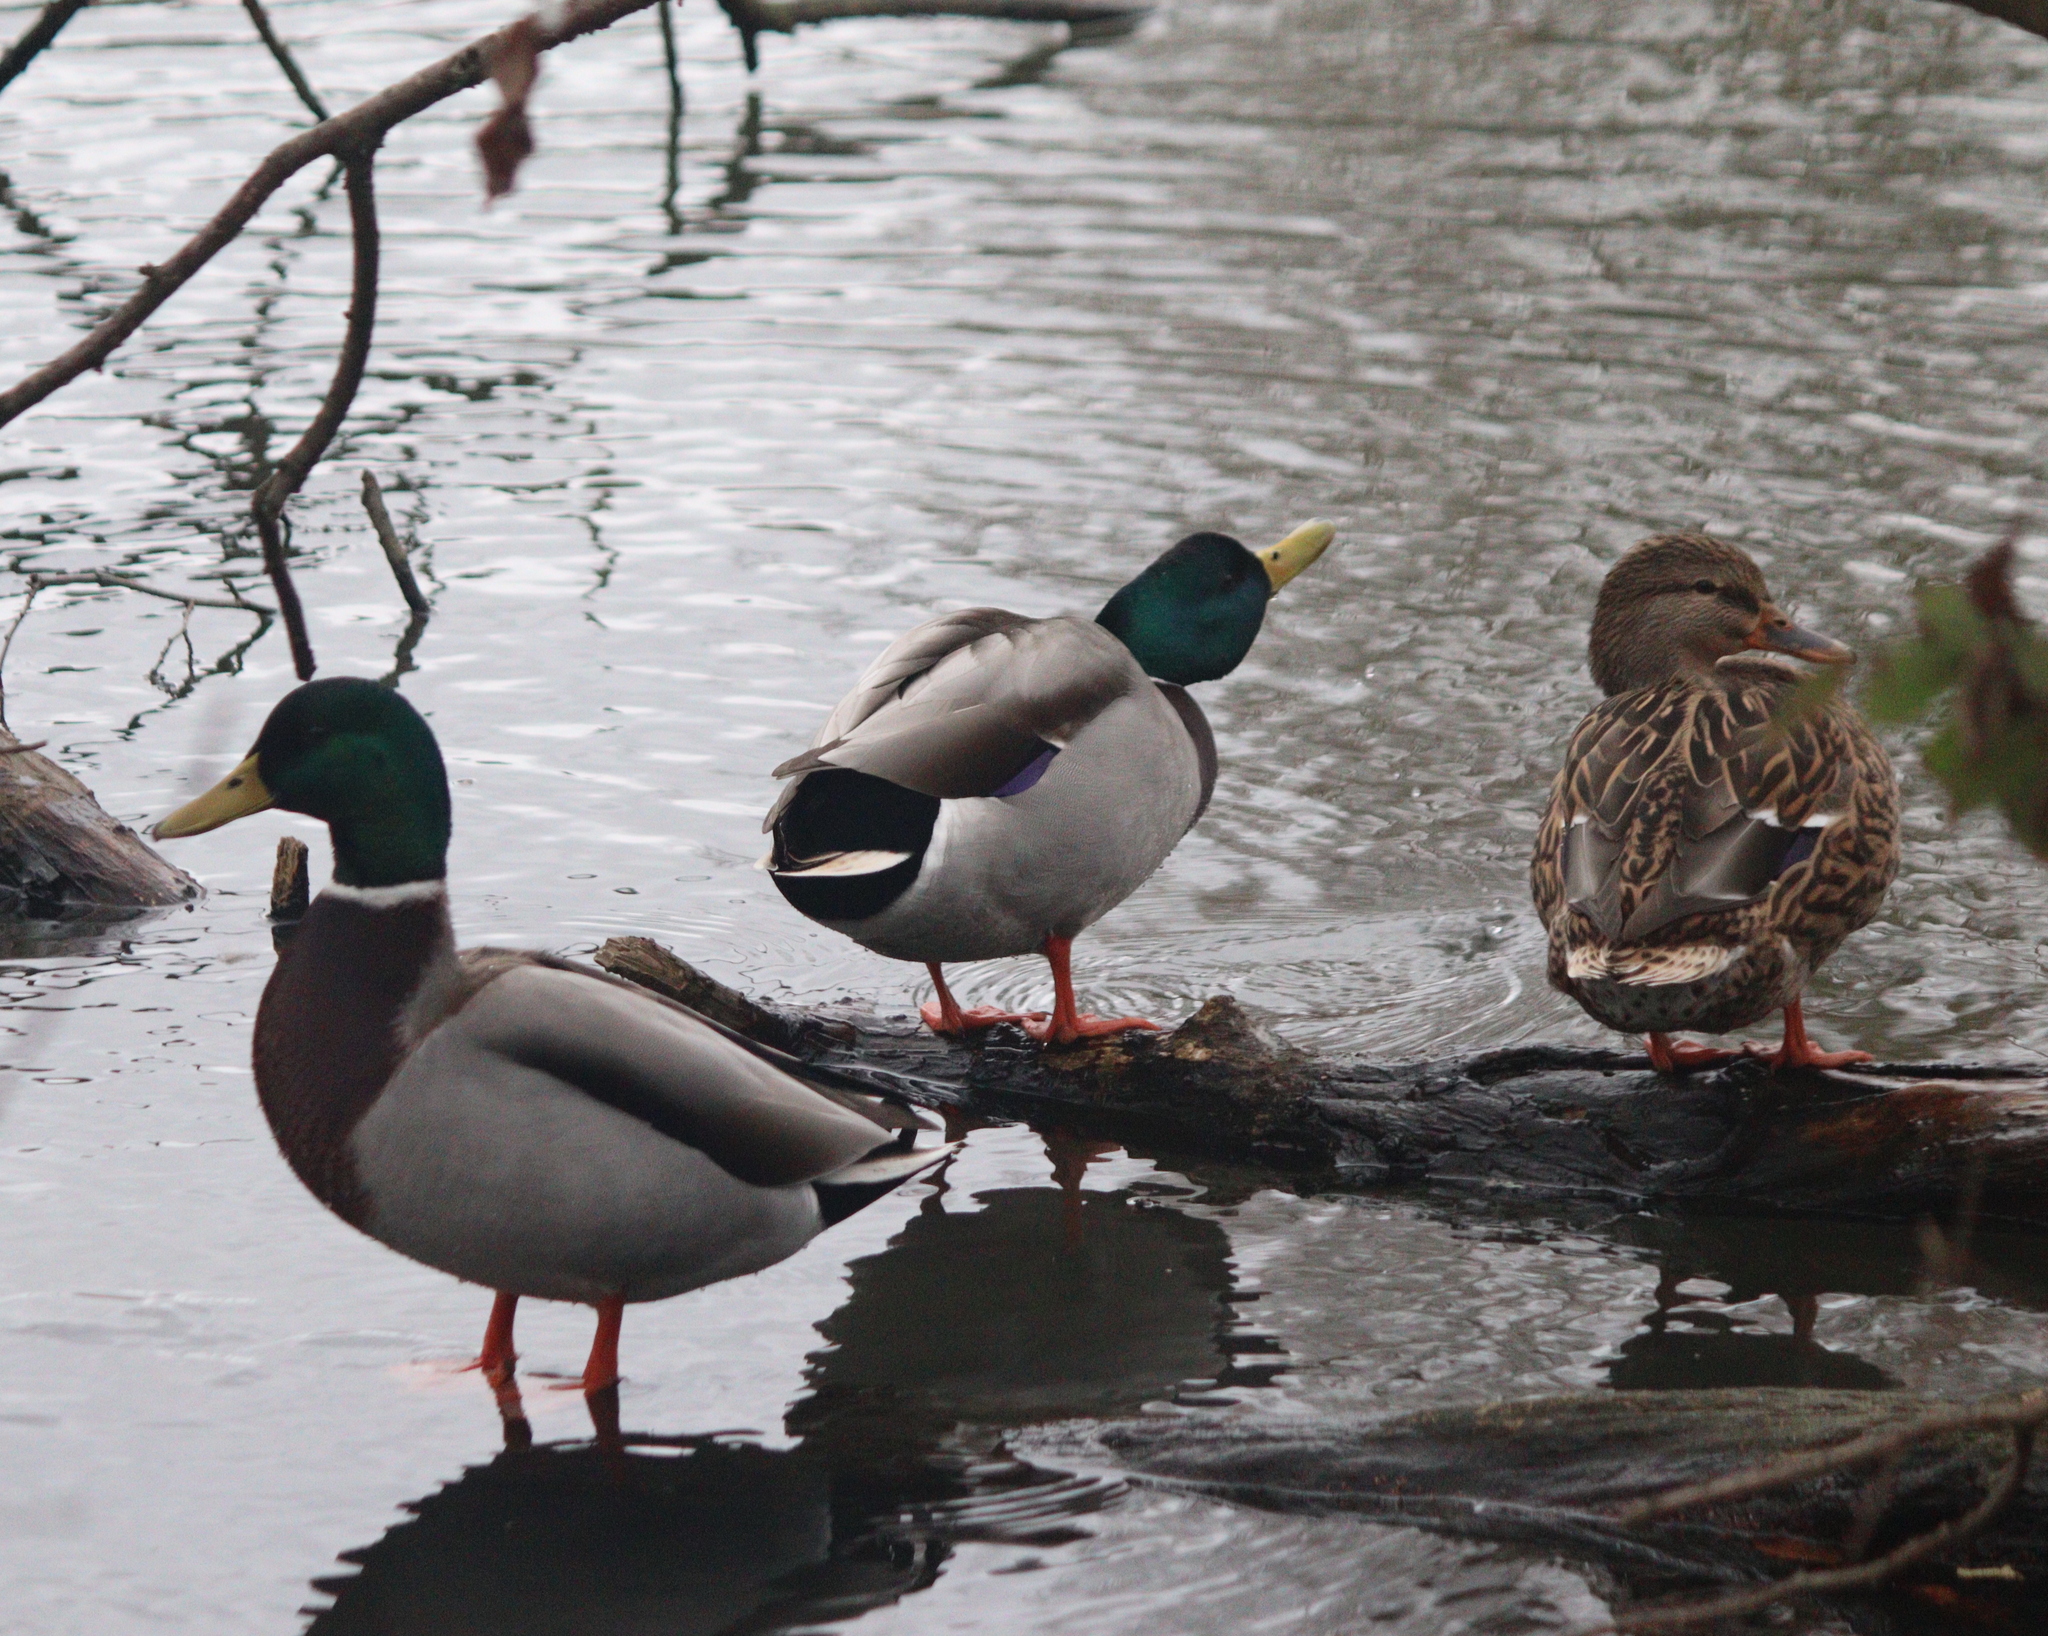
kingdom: Animalia
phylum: Chordata
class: Aves
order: Anseriformes
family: Anatidae
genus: Anas
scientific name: Anas platyrhynchos
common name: Mallard
